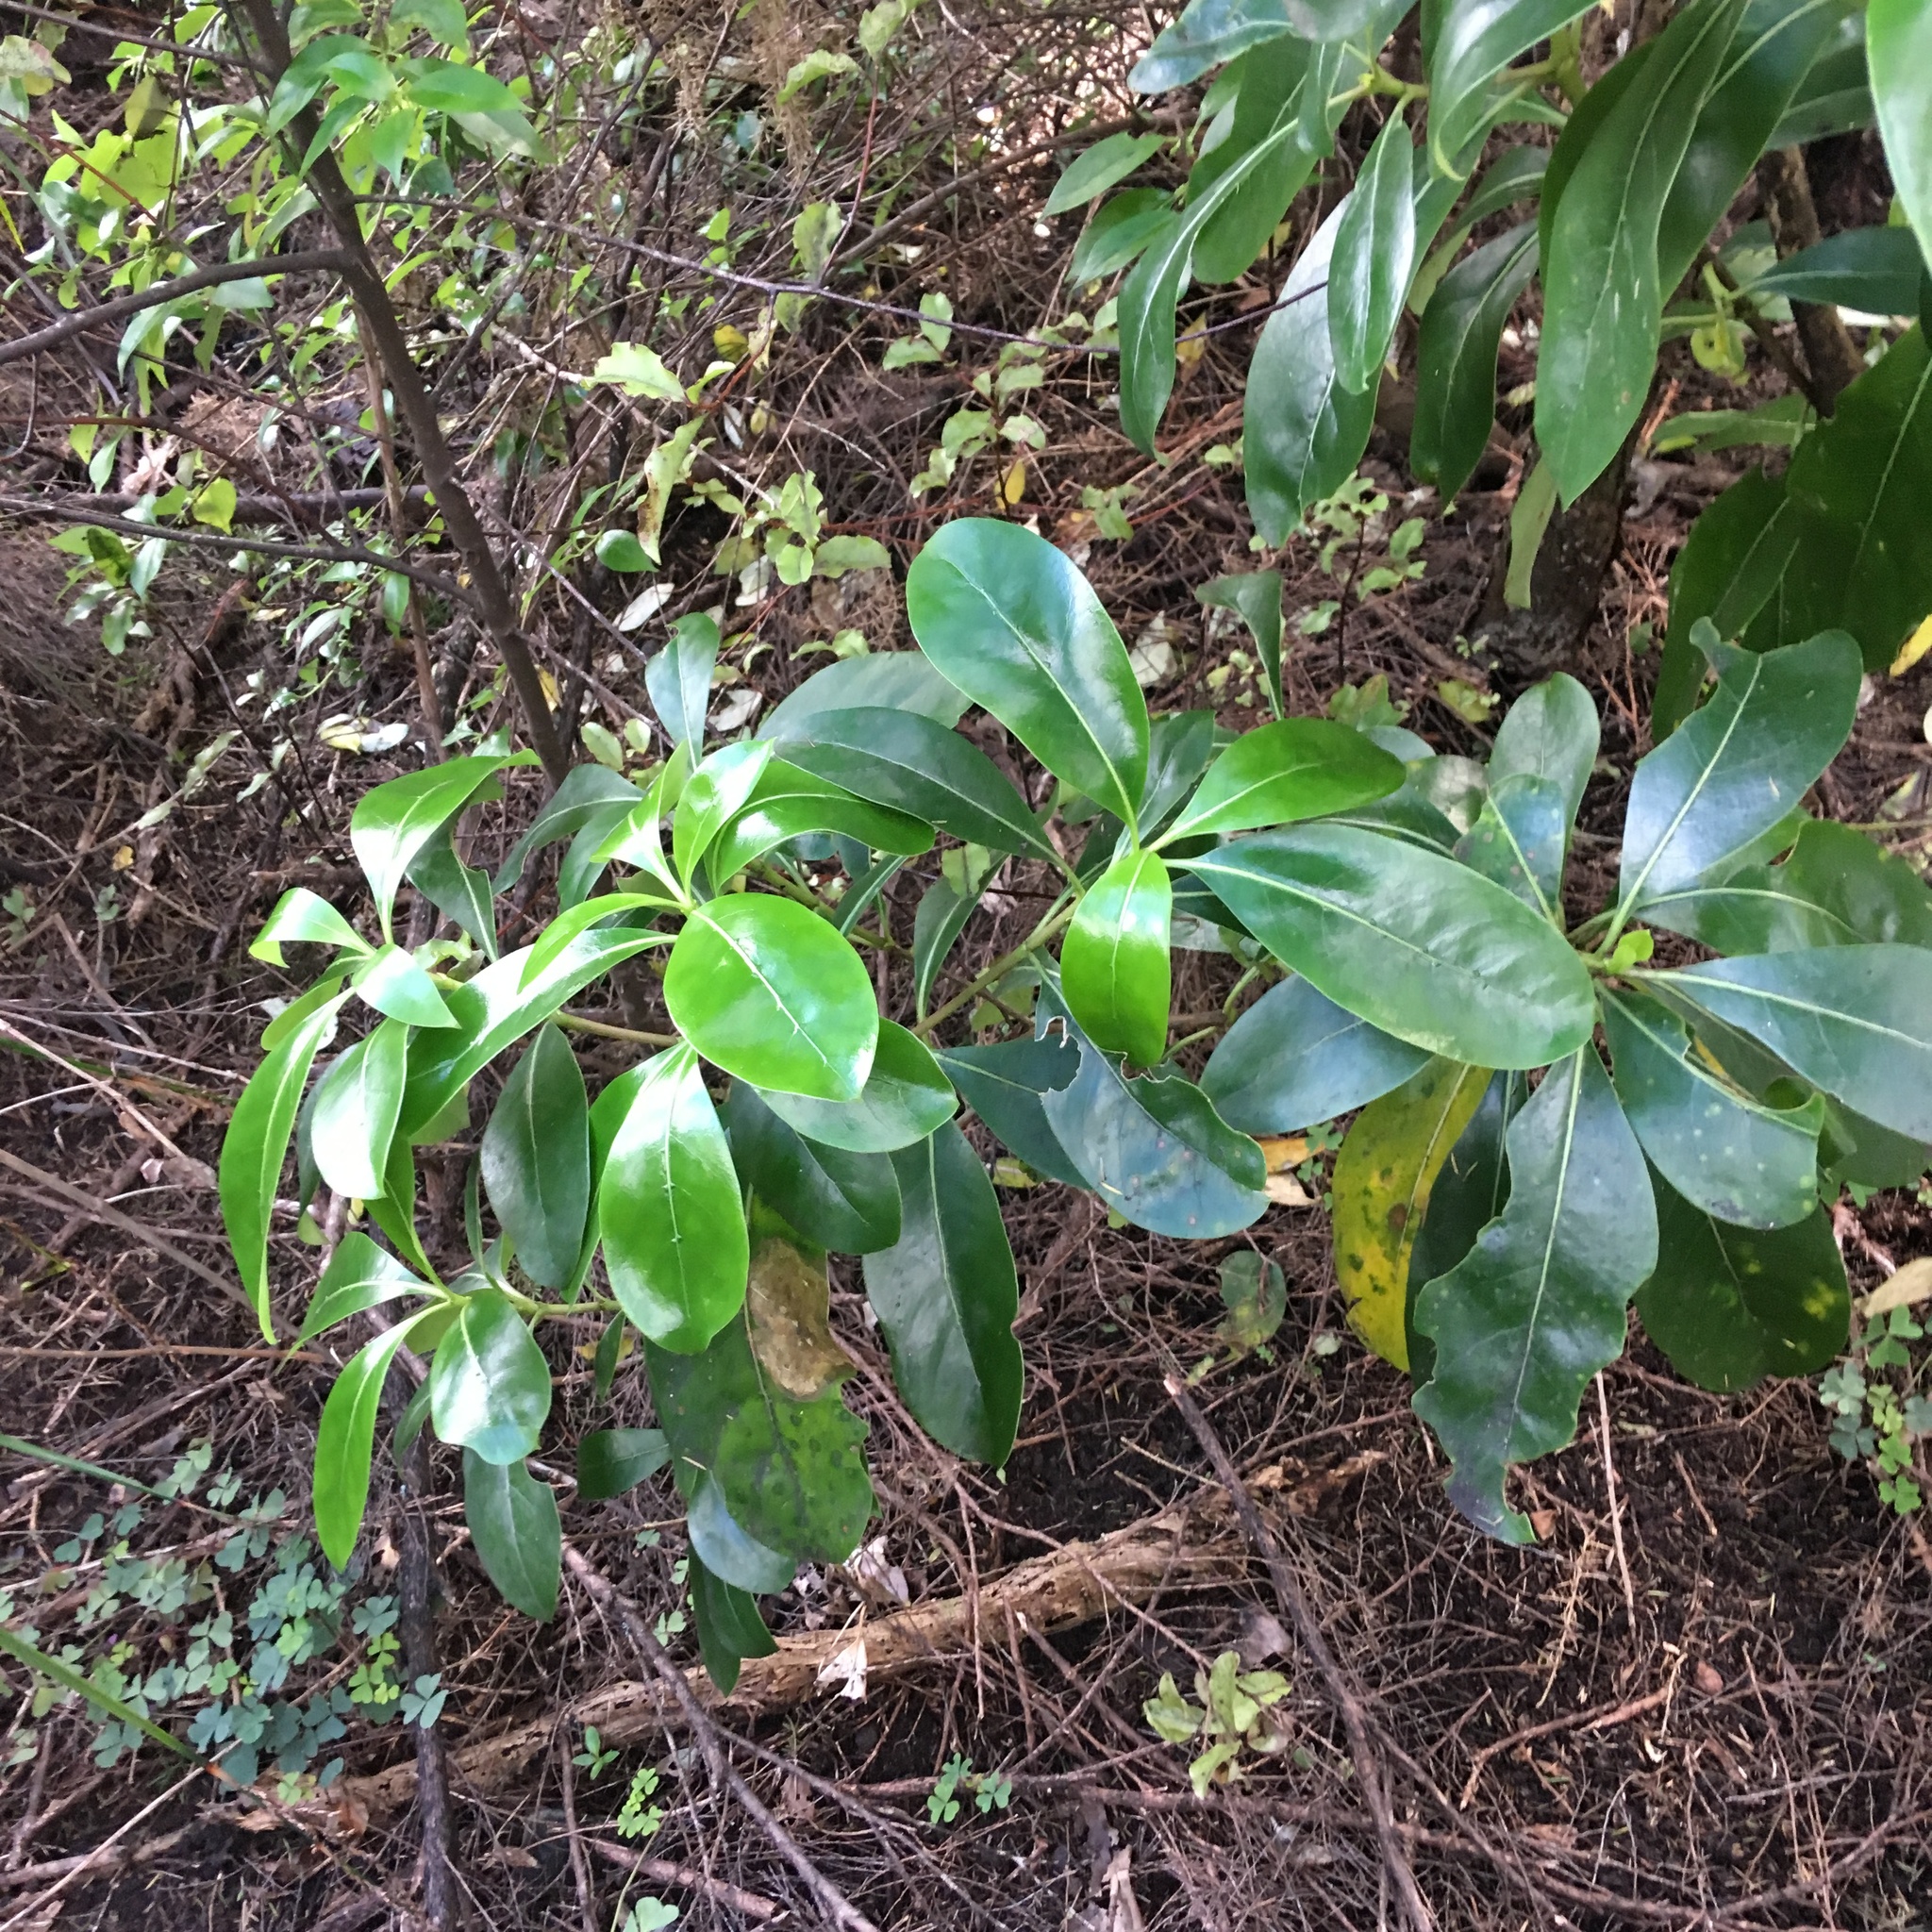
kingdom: Plantae
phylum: Tracheophyta
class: Magnoliopsida
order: Gentianales
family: Rubiaceae
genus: Coprosma
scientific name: Coprosma lucida
